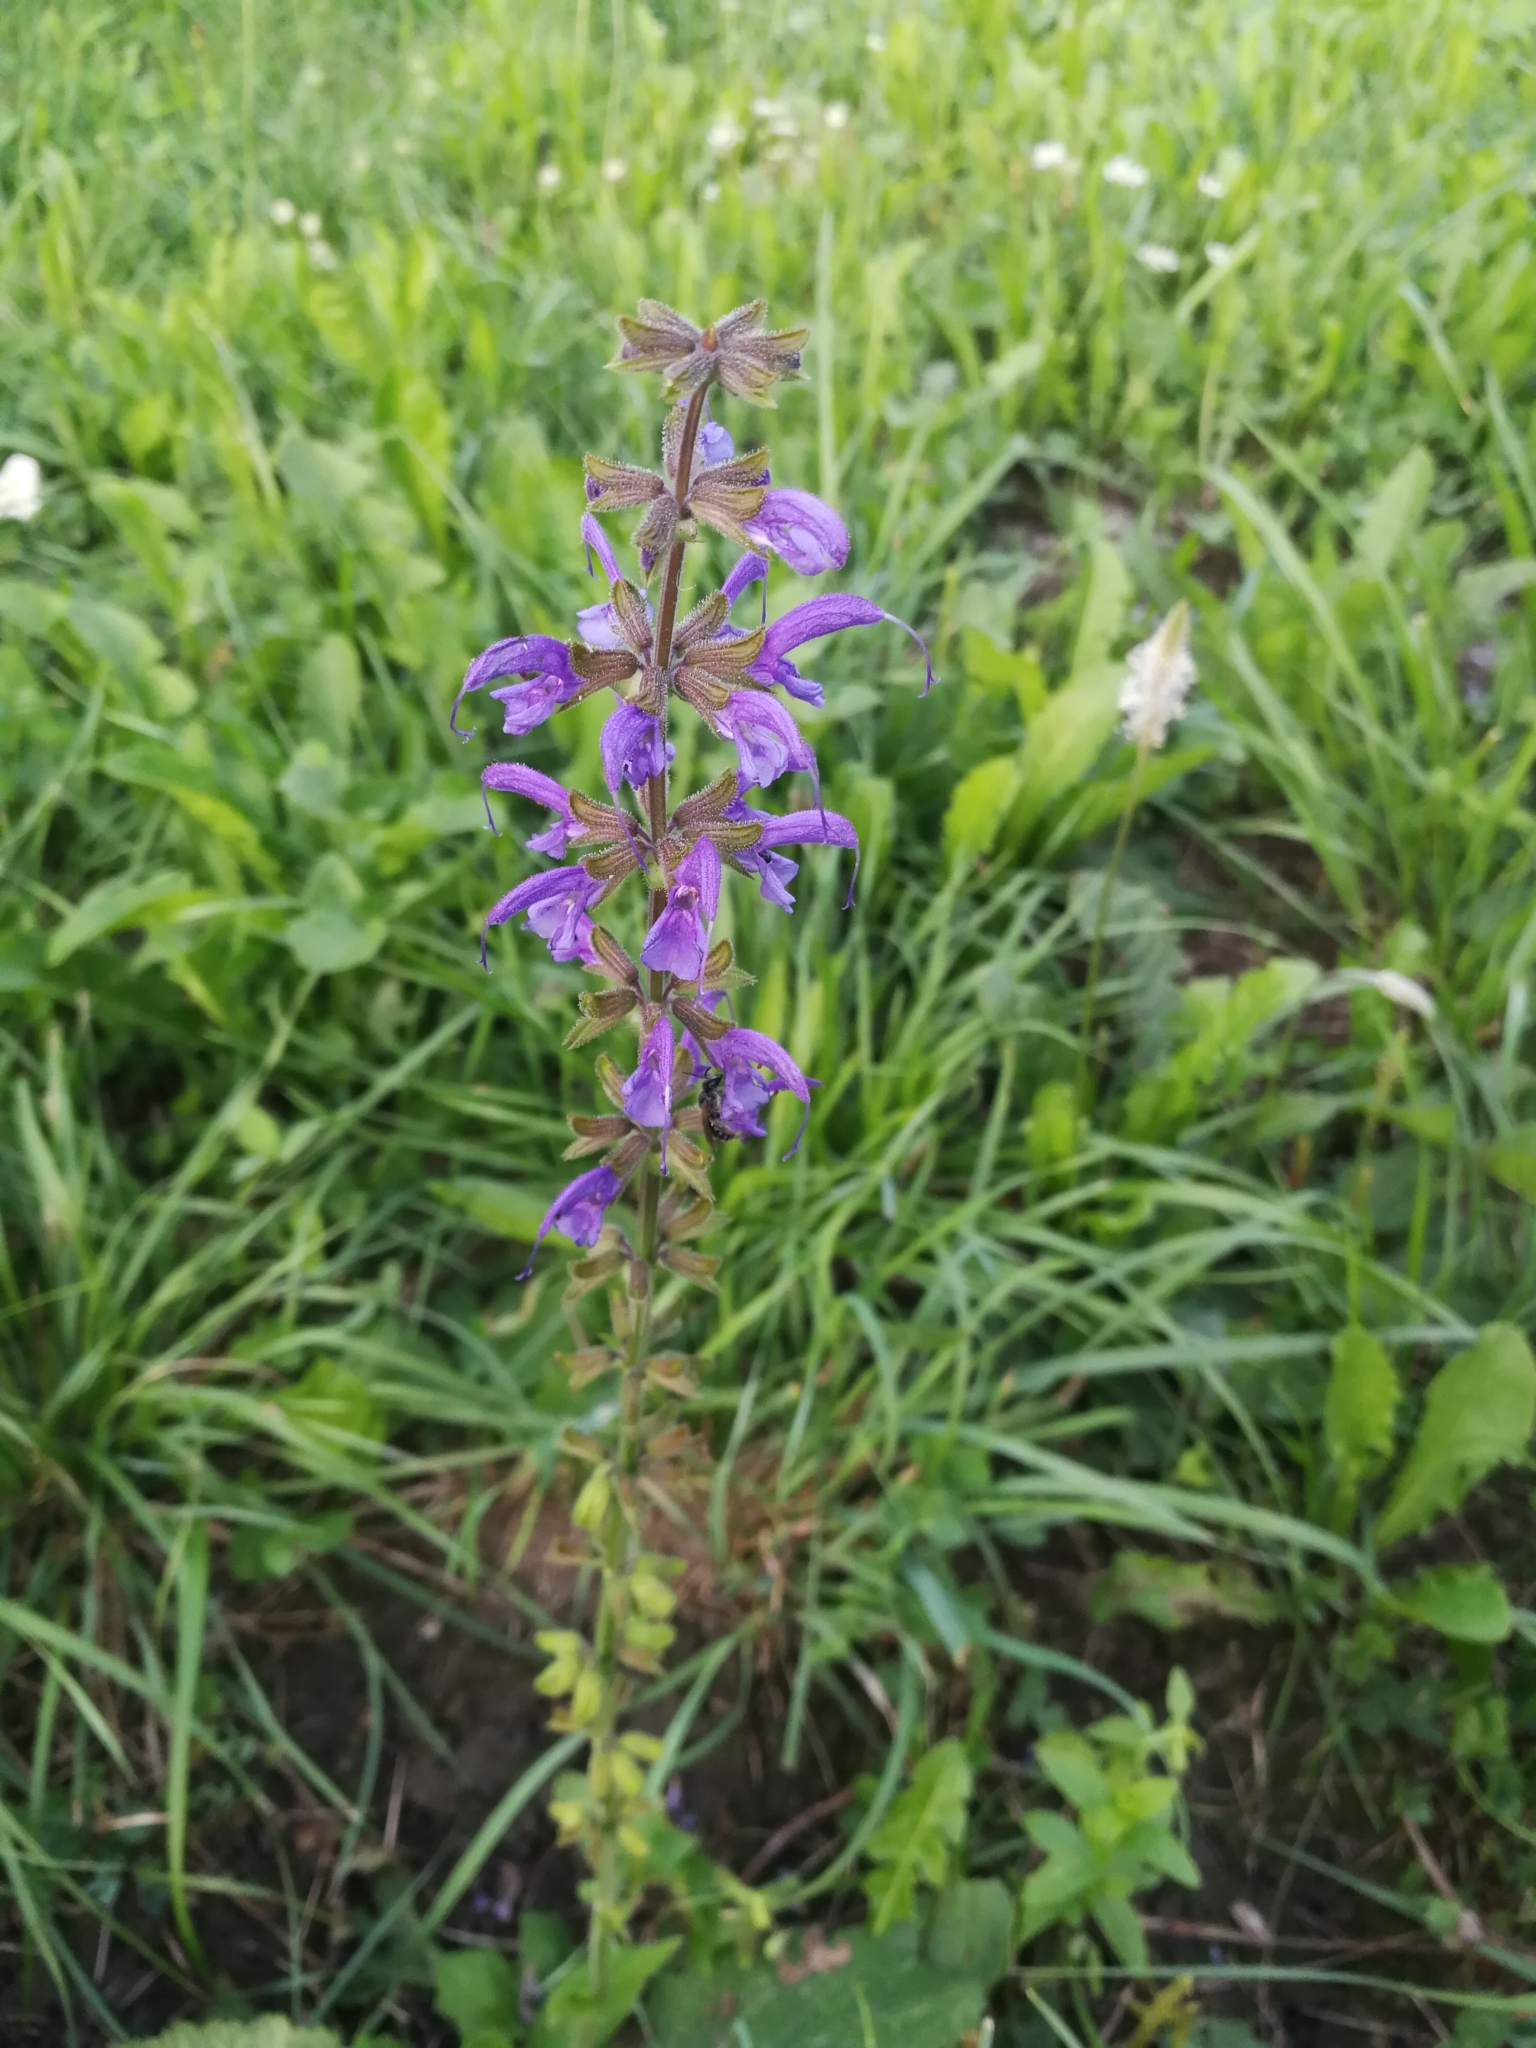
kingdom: Plantae
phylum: Tracheophyta
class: Magnoliopsida
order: Lamiales
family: Lamiaceae
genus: Salvia
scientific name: Salvia pratensis
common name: Meadow sage
